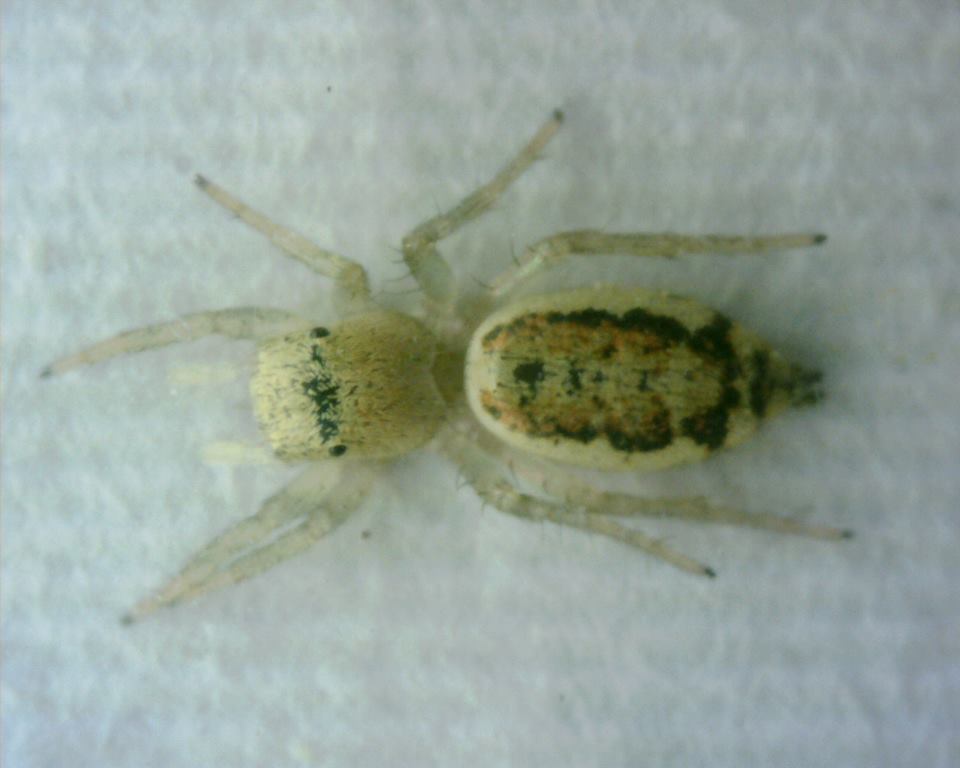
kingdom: Animalia
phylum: Arthropoda
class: Arachnida
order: Araneae
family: Salticidae
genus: Cosmophasis
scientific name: Cosmophasis lami
